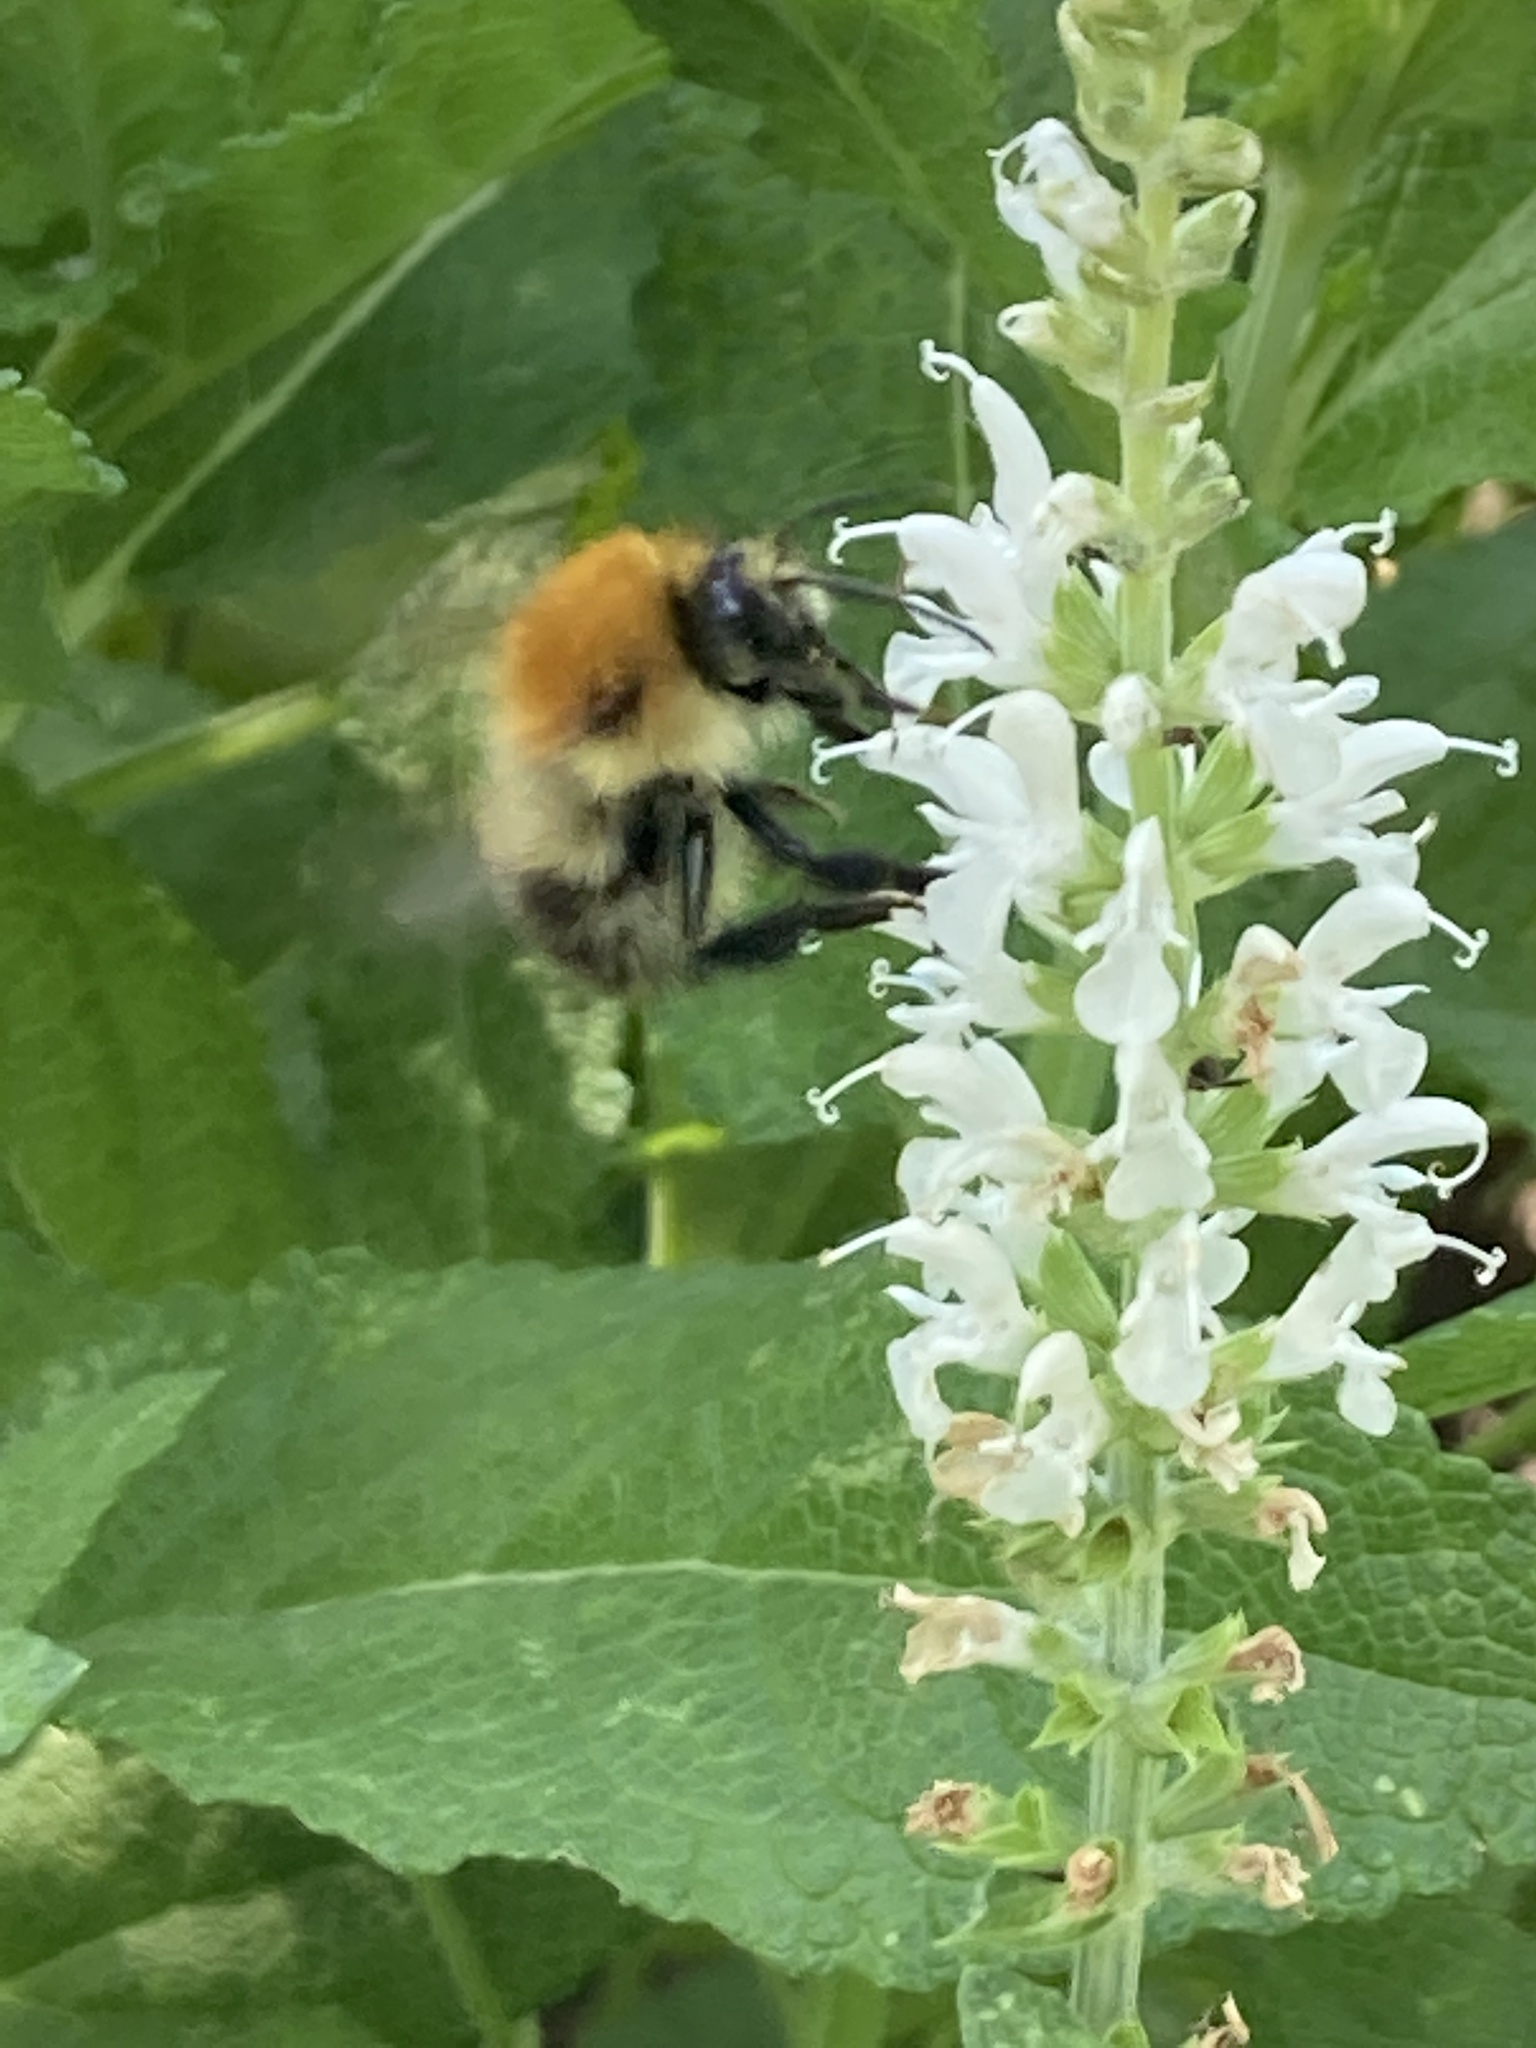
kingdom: Animalia
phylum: Arthropoda
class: Insecta
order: Hymenoptera
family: Apidae
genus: Bombus
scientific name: Bombus pascuorum
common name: Common carder bee
